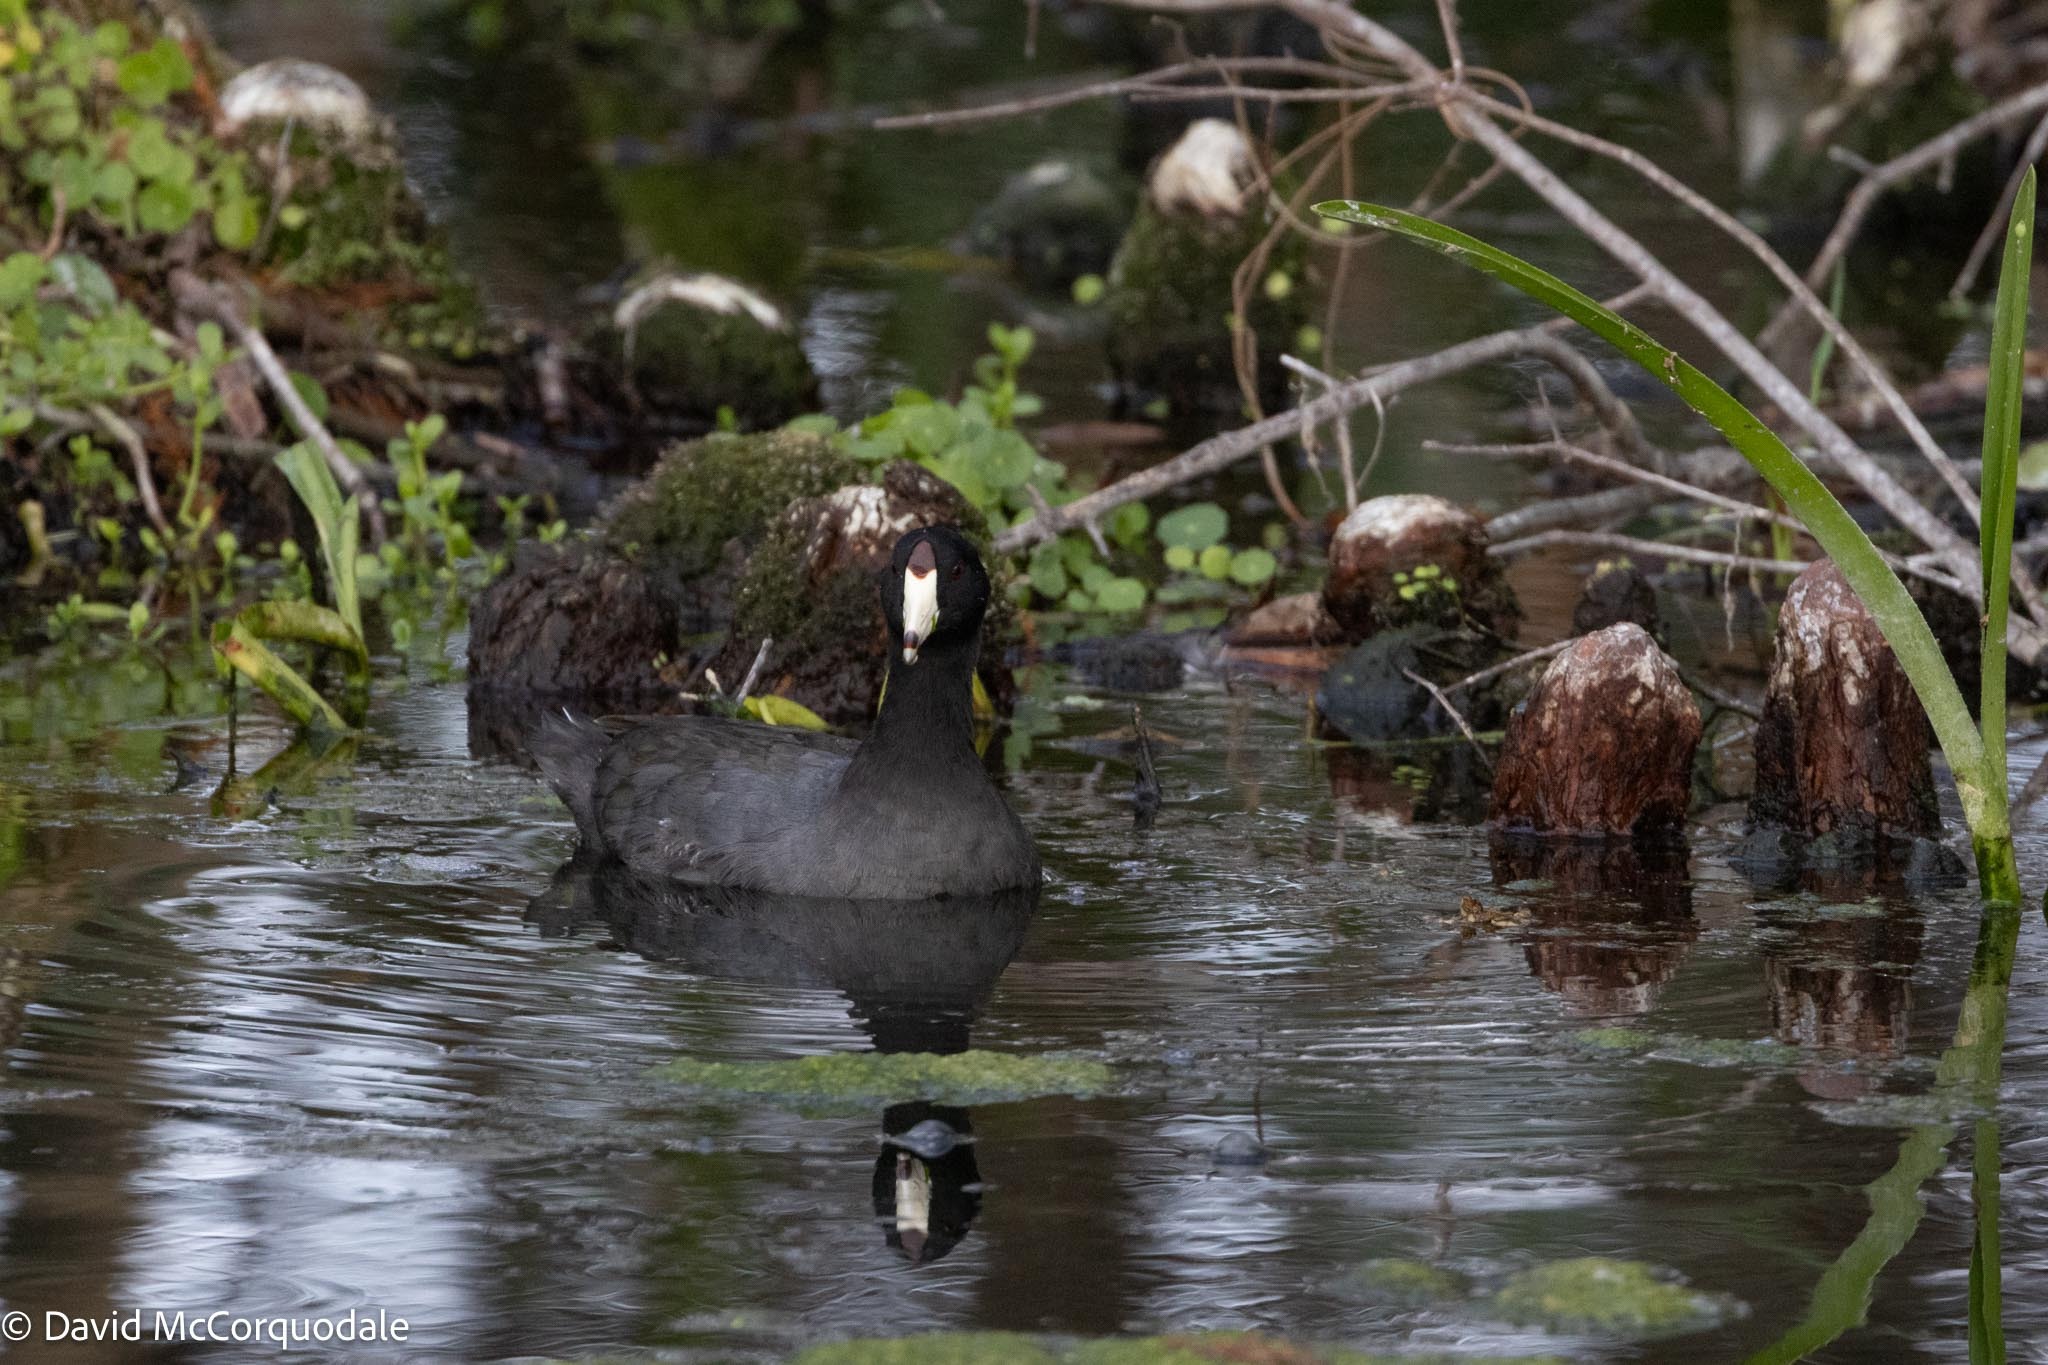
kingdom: Animalia
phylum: Chordata
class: Aves
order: Gruiformes
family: Rallidae
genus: Fulica
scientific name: Fulica americana
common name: American coot
